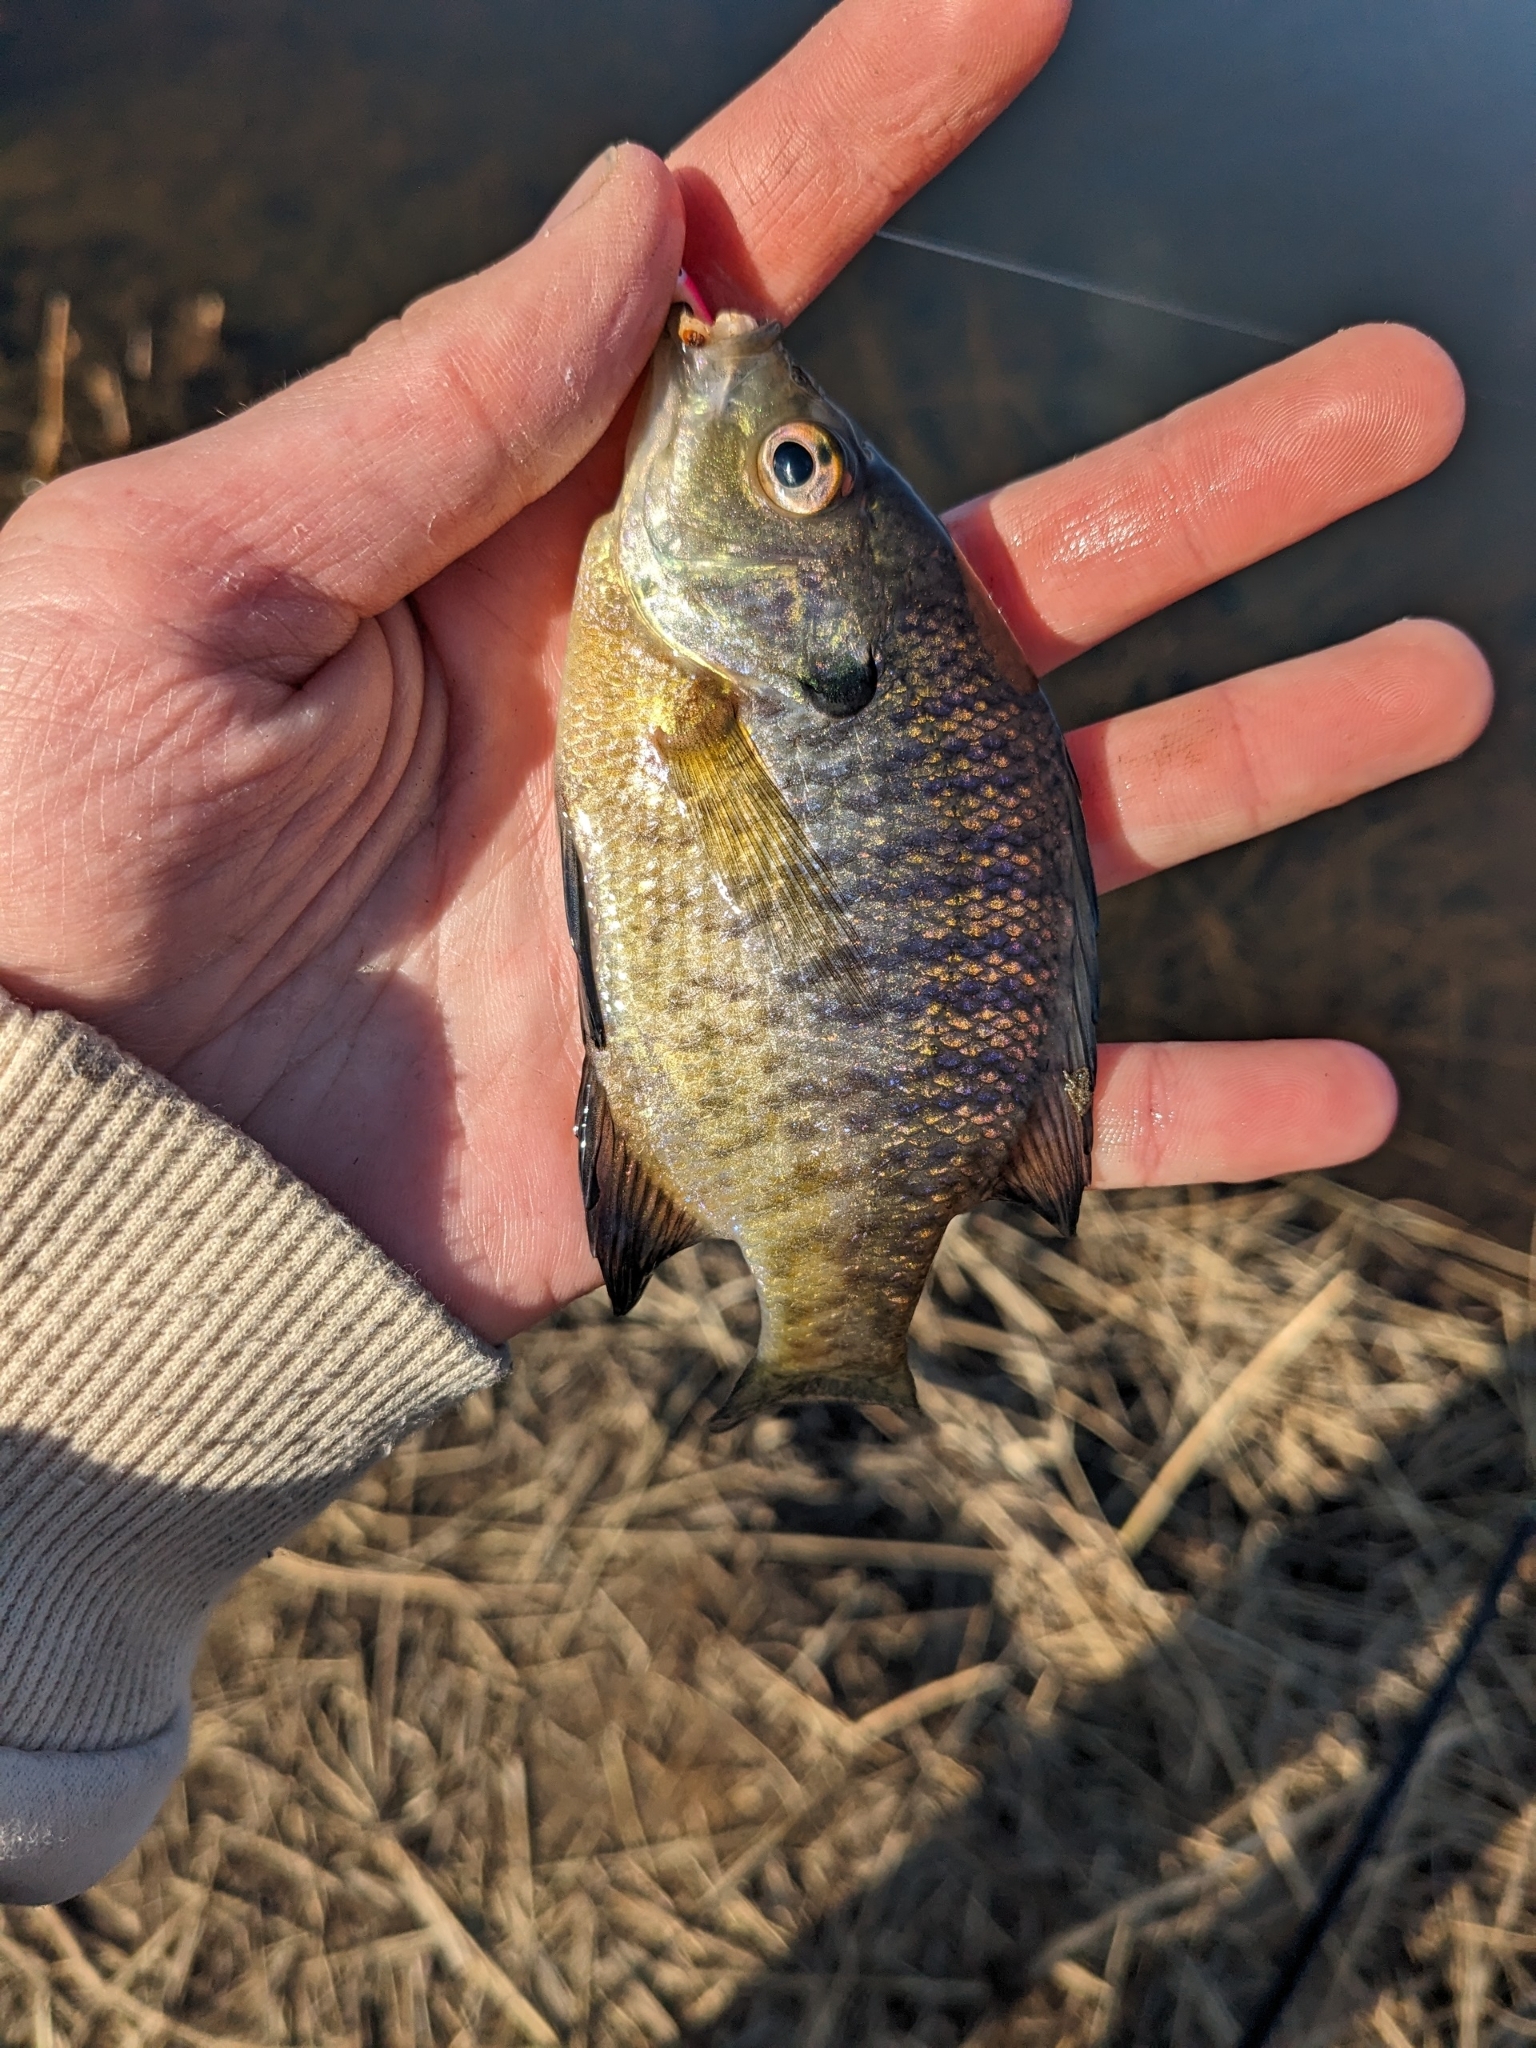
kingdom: Animalia
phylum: Chordata
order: Perciformes
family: Centrarchidae
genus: Lepomis
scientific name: Lepomis macrochirus
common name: Bluegill
